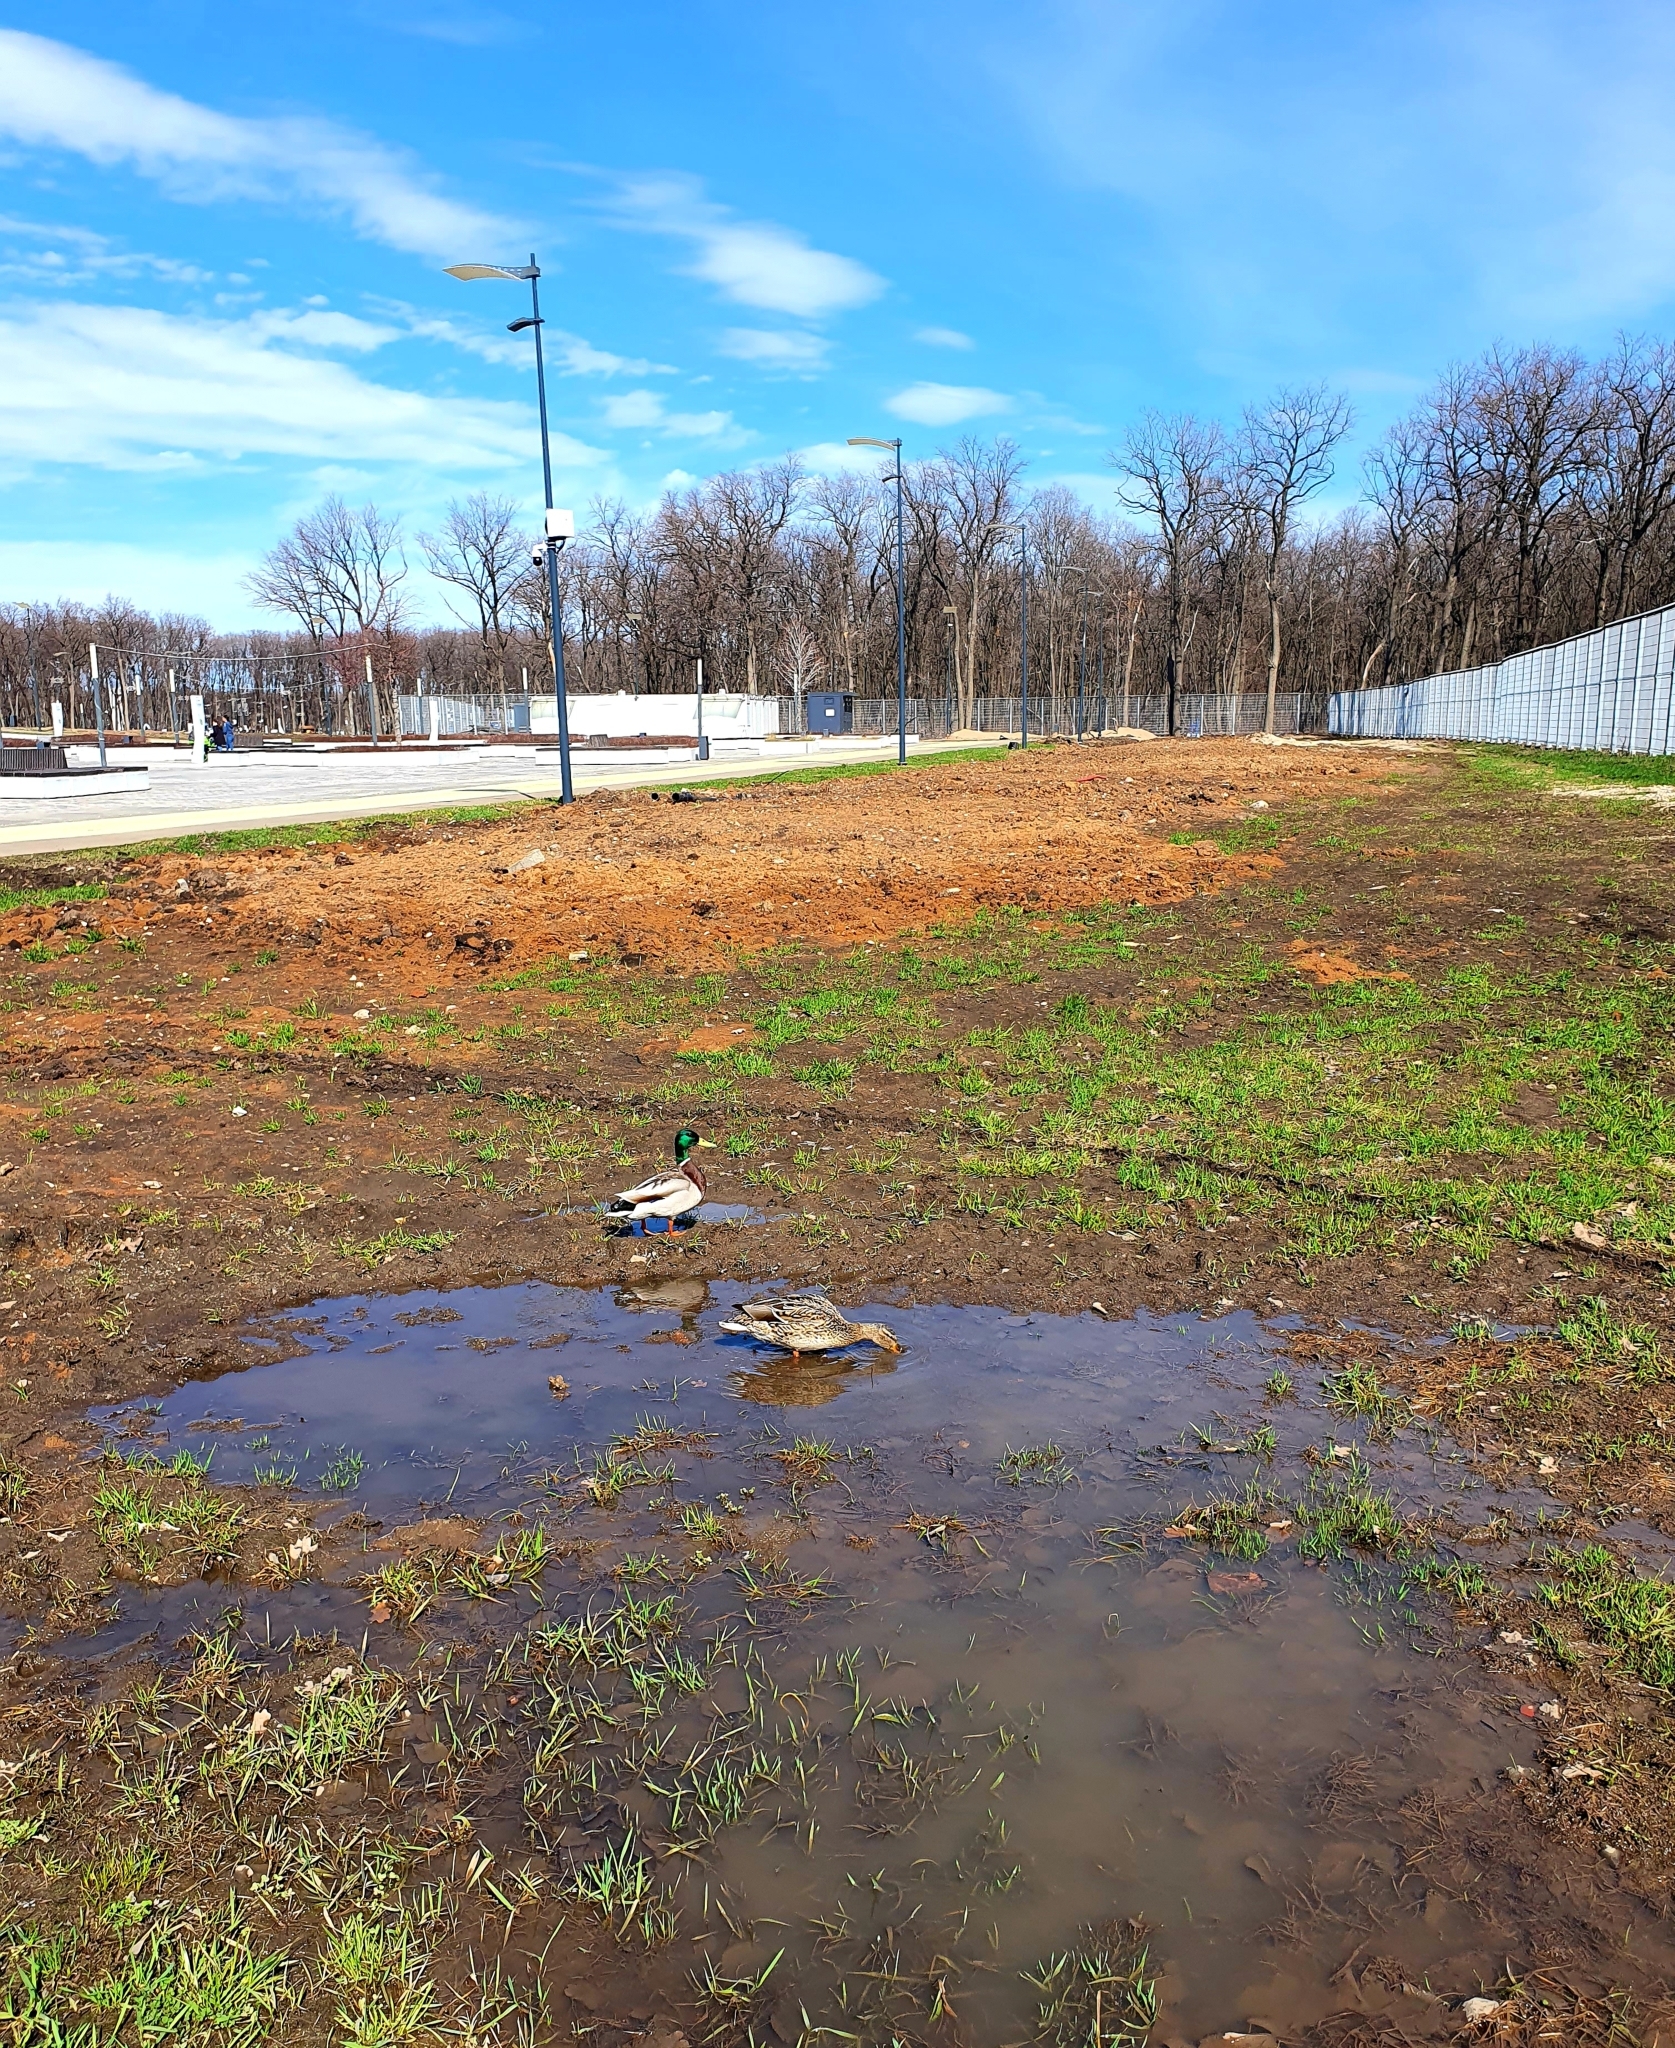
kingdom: Animalia
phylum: Chordata
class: Aves
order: Anseriformes
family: Anatidae
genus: Anas
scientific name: Anas platyrhynchos
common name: Mallard
